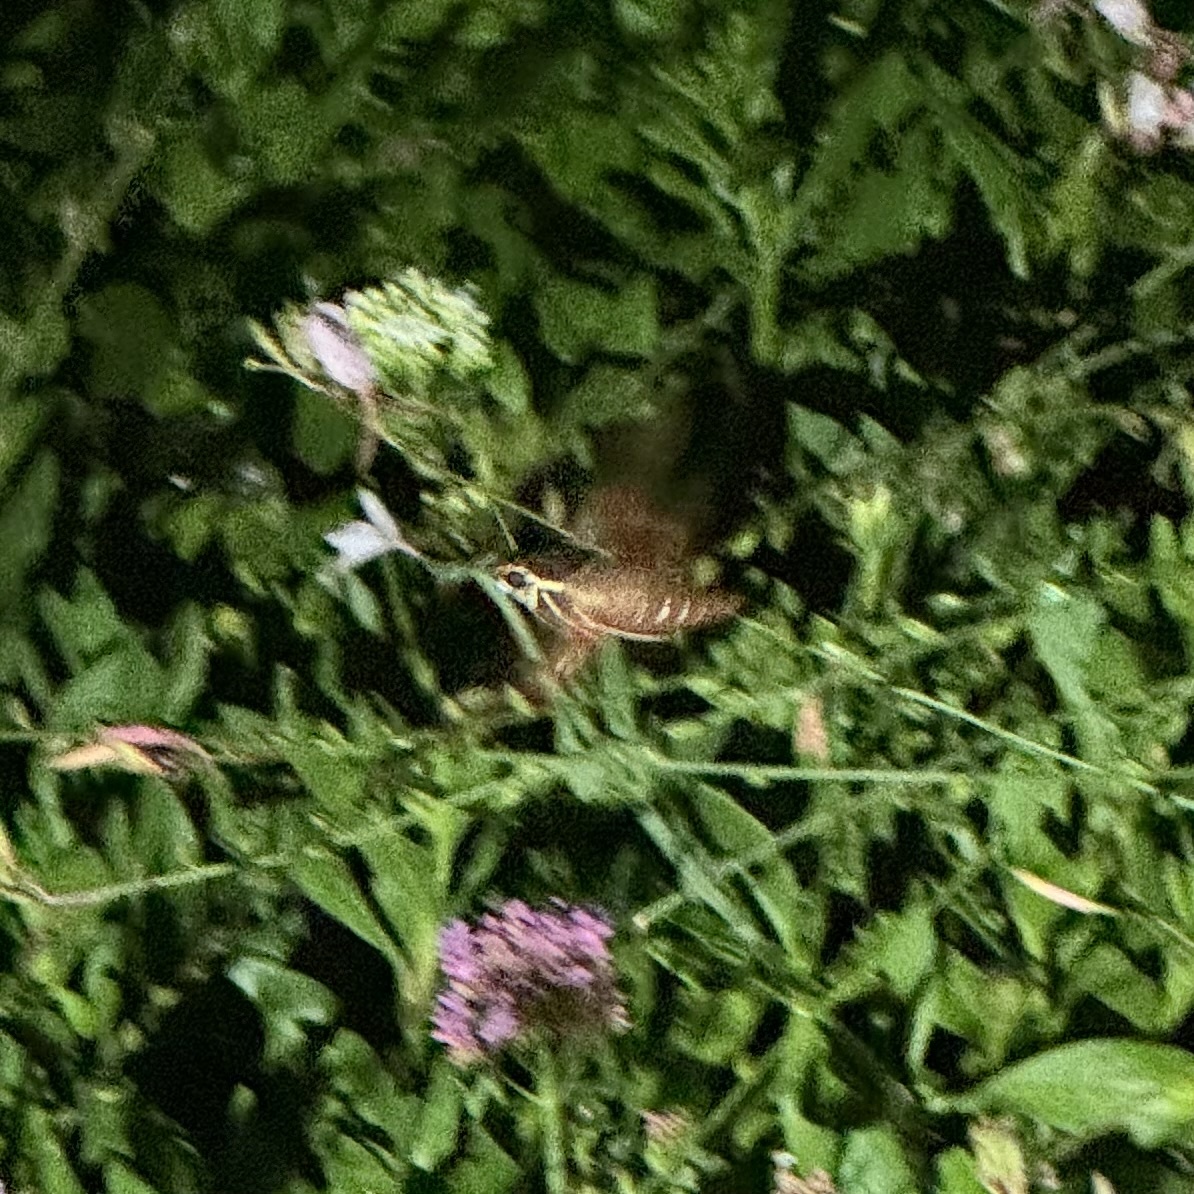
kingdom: Animalia
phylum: Arthropoda
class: Insecta
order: Lepidoptera
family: Sphingidae
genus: Hippotion
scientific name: Hippotion scrofa
